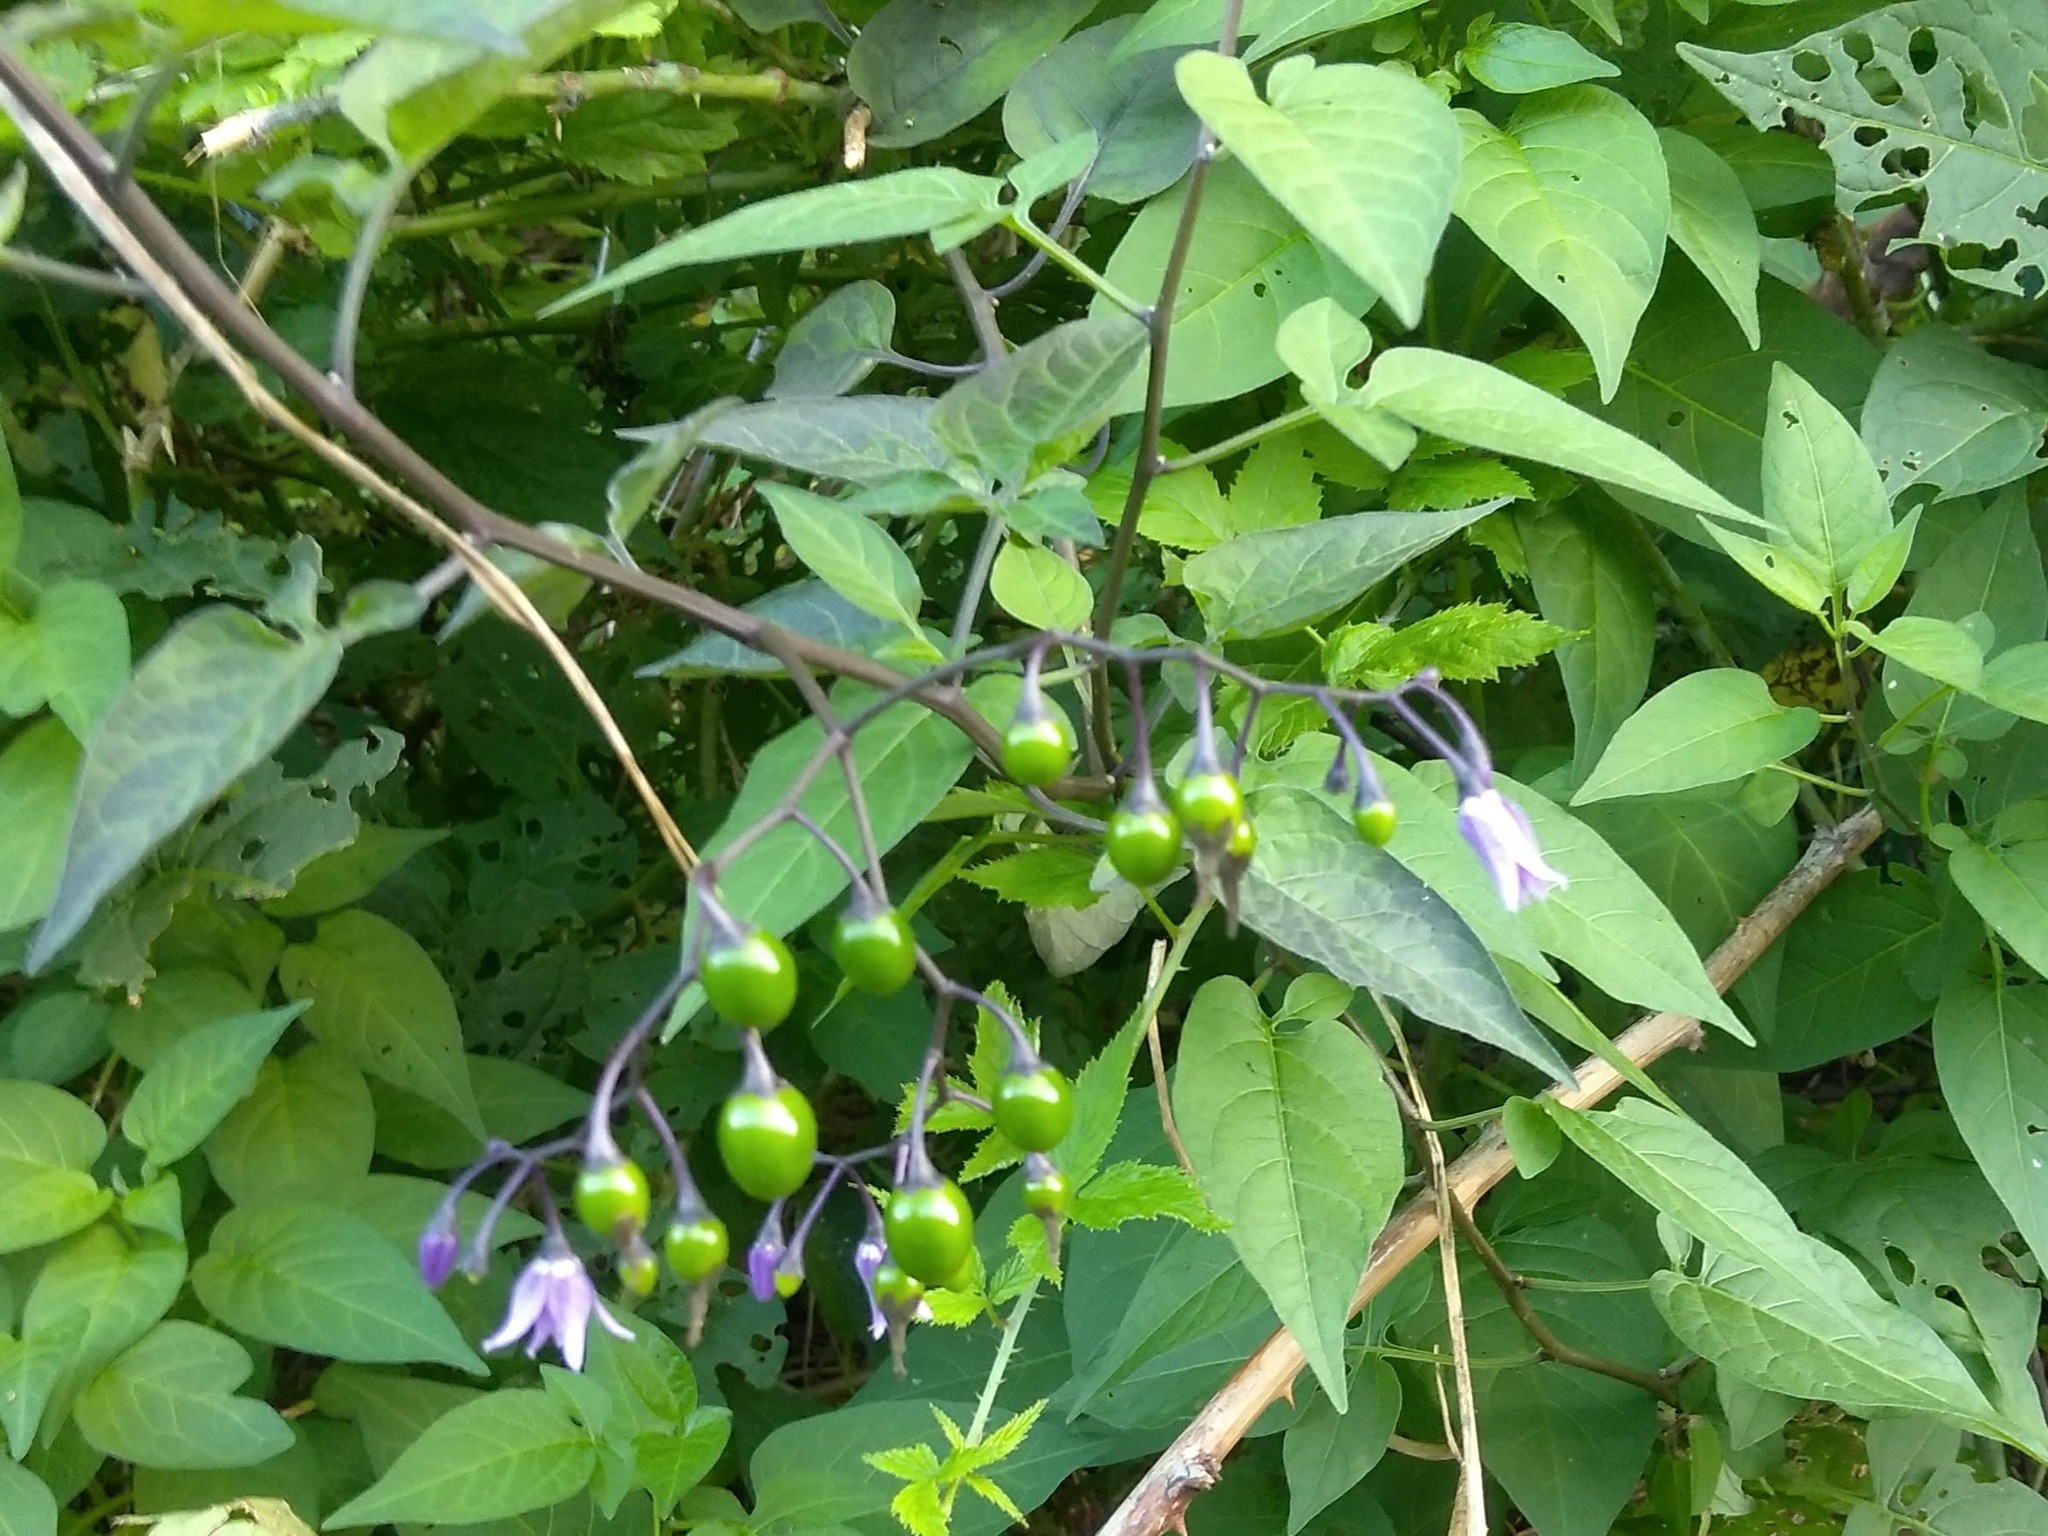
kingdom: Plantae
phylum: Tracheophyta
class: Magnoliopsida
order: Solanales
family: Solanaceae
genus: Solanum
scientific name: Solanum dulcamara
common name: Climbing nightshade
